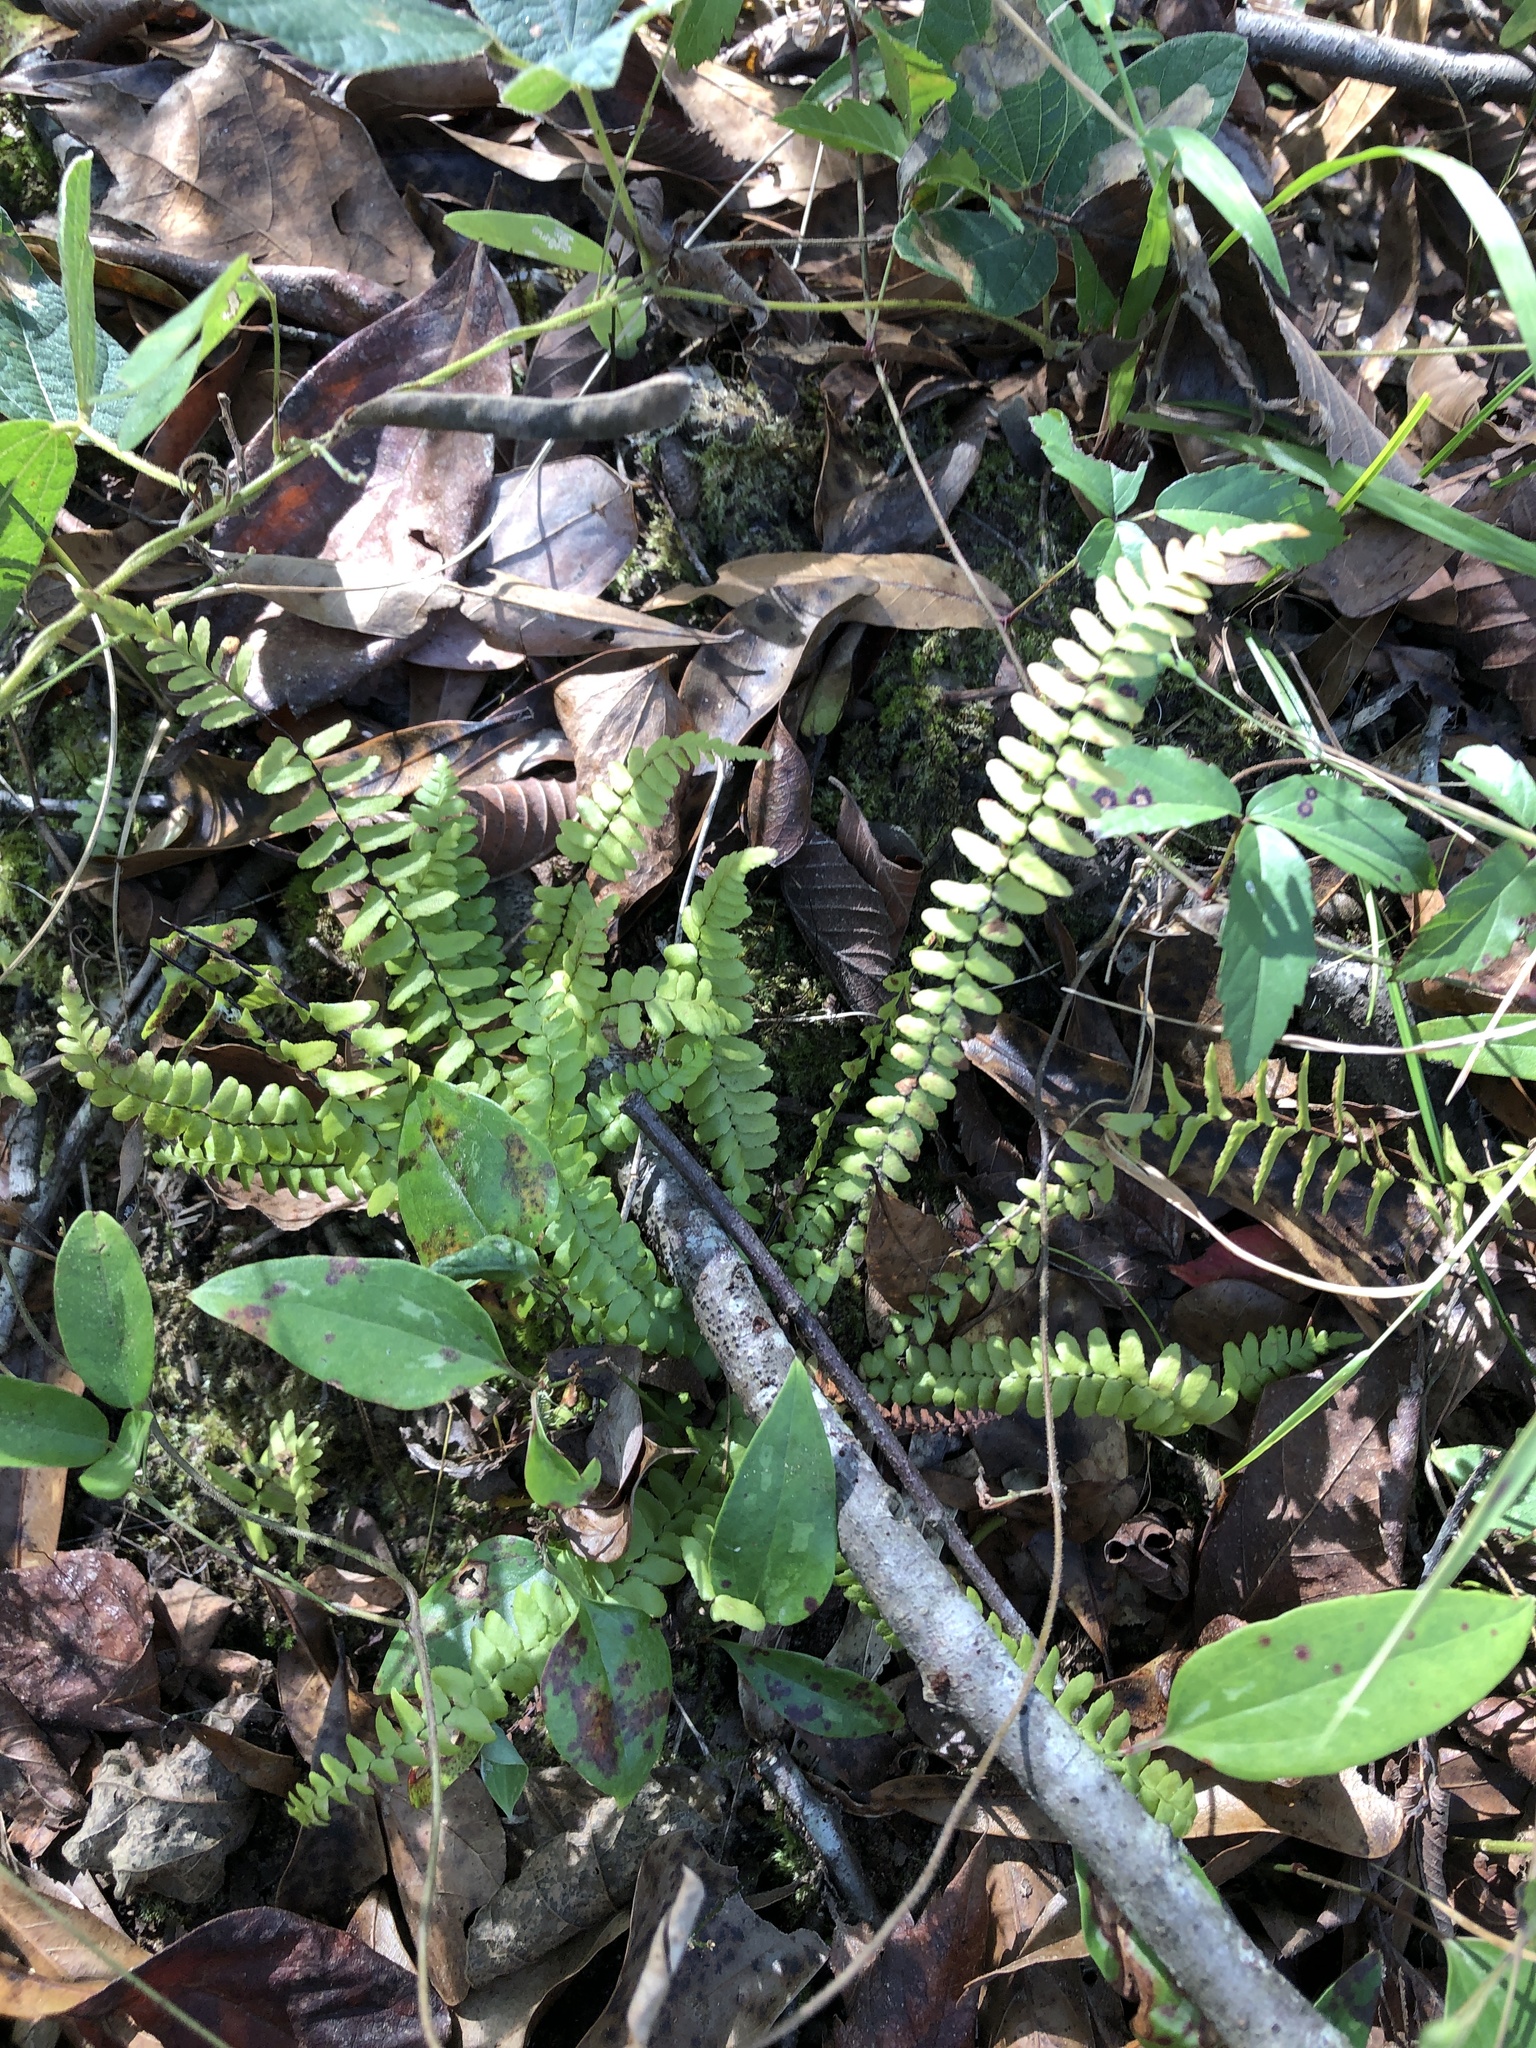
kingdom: Plantae
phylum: Tracheophyta
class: Polypodiopsida
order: Polypodiales
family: Aspleniaceae
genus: Asplenium
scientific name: Asplenium platyneuron
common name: Ebony spleenwort
